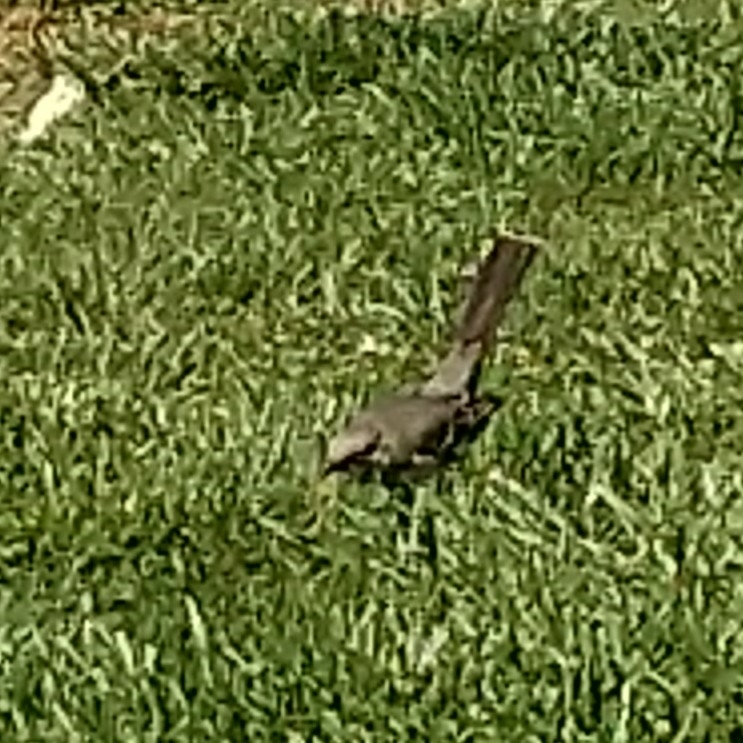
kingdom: Animalia
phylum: Chordata
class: Aves
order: Passeriformes
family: Mimidae
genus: Mimus
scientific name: Mimus polyglottos
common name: Northern mockingbird
